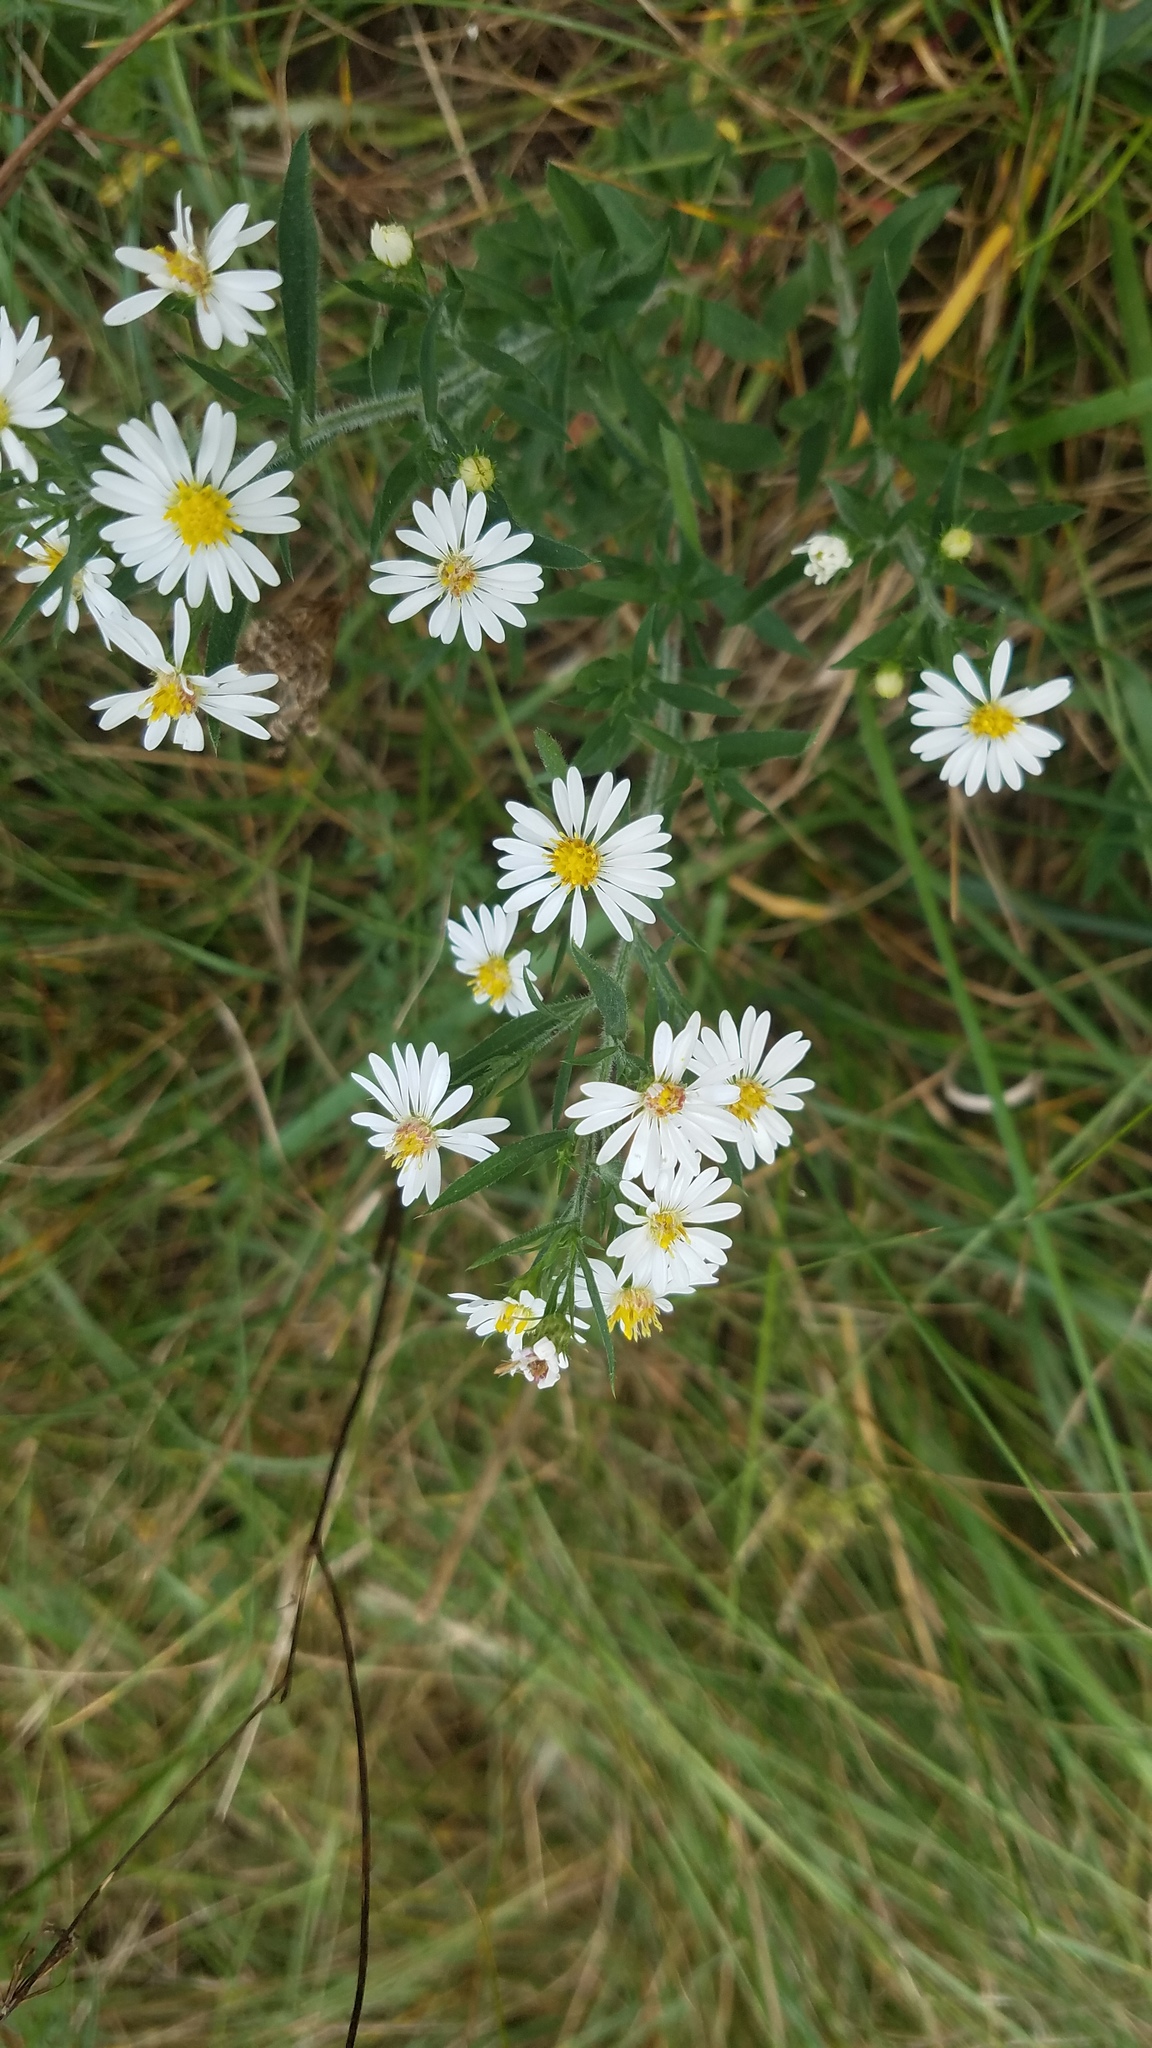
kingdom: Plantae
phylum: Tracheophyta
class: Magnoliopsida
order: Asterales
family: Asteraceae
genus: Symphyotrichum
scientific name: Symphyotrichum pilosum
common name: Awl aster
